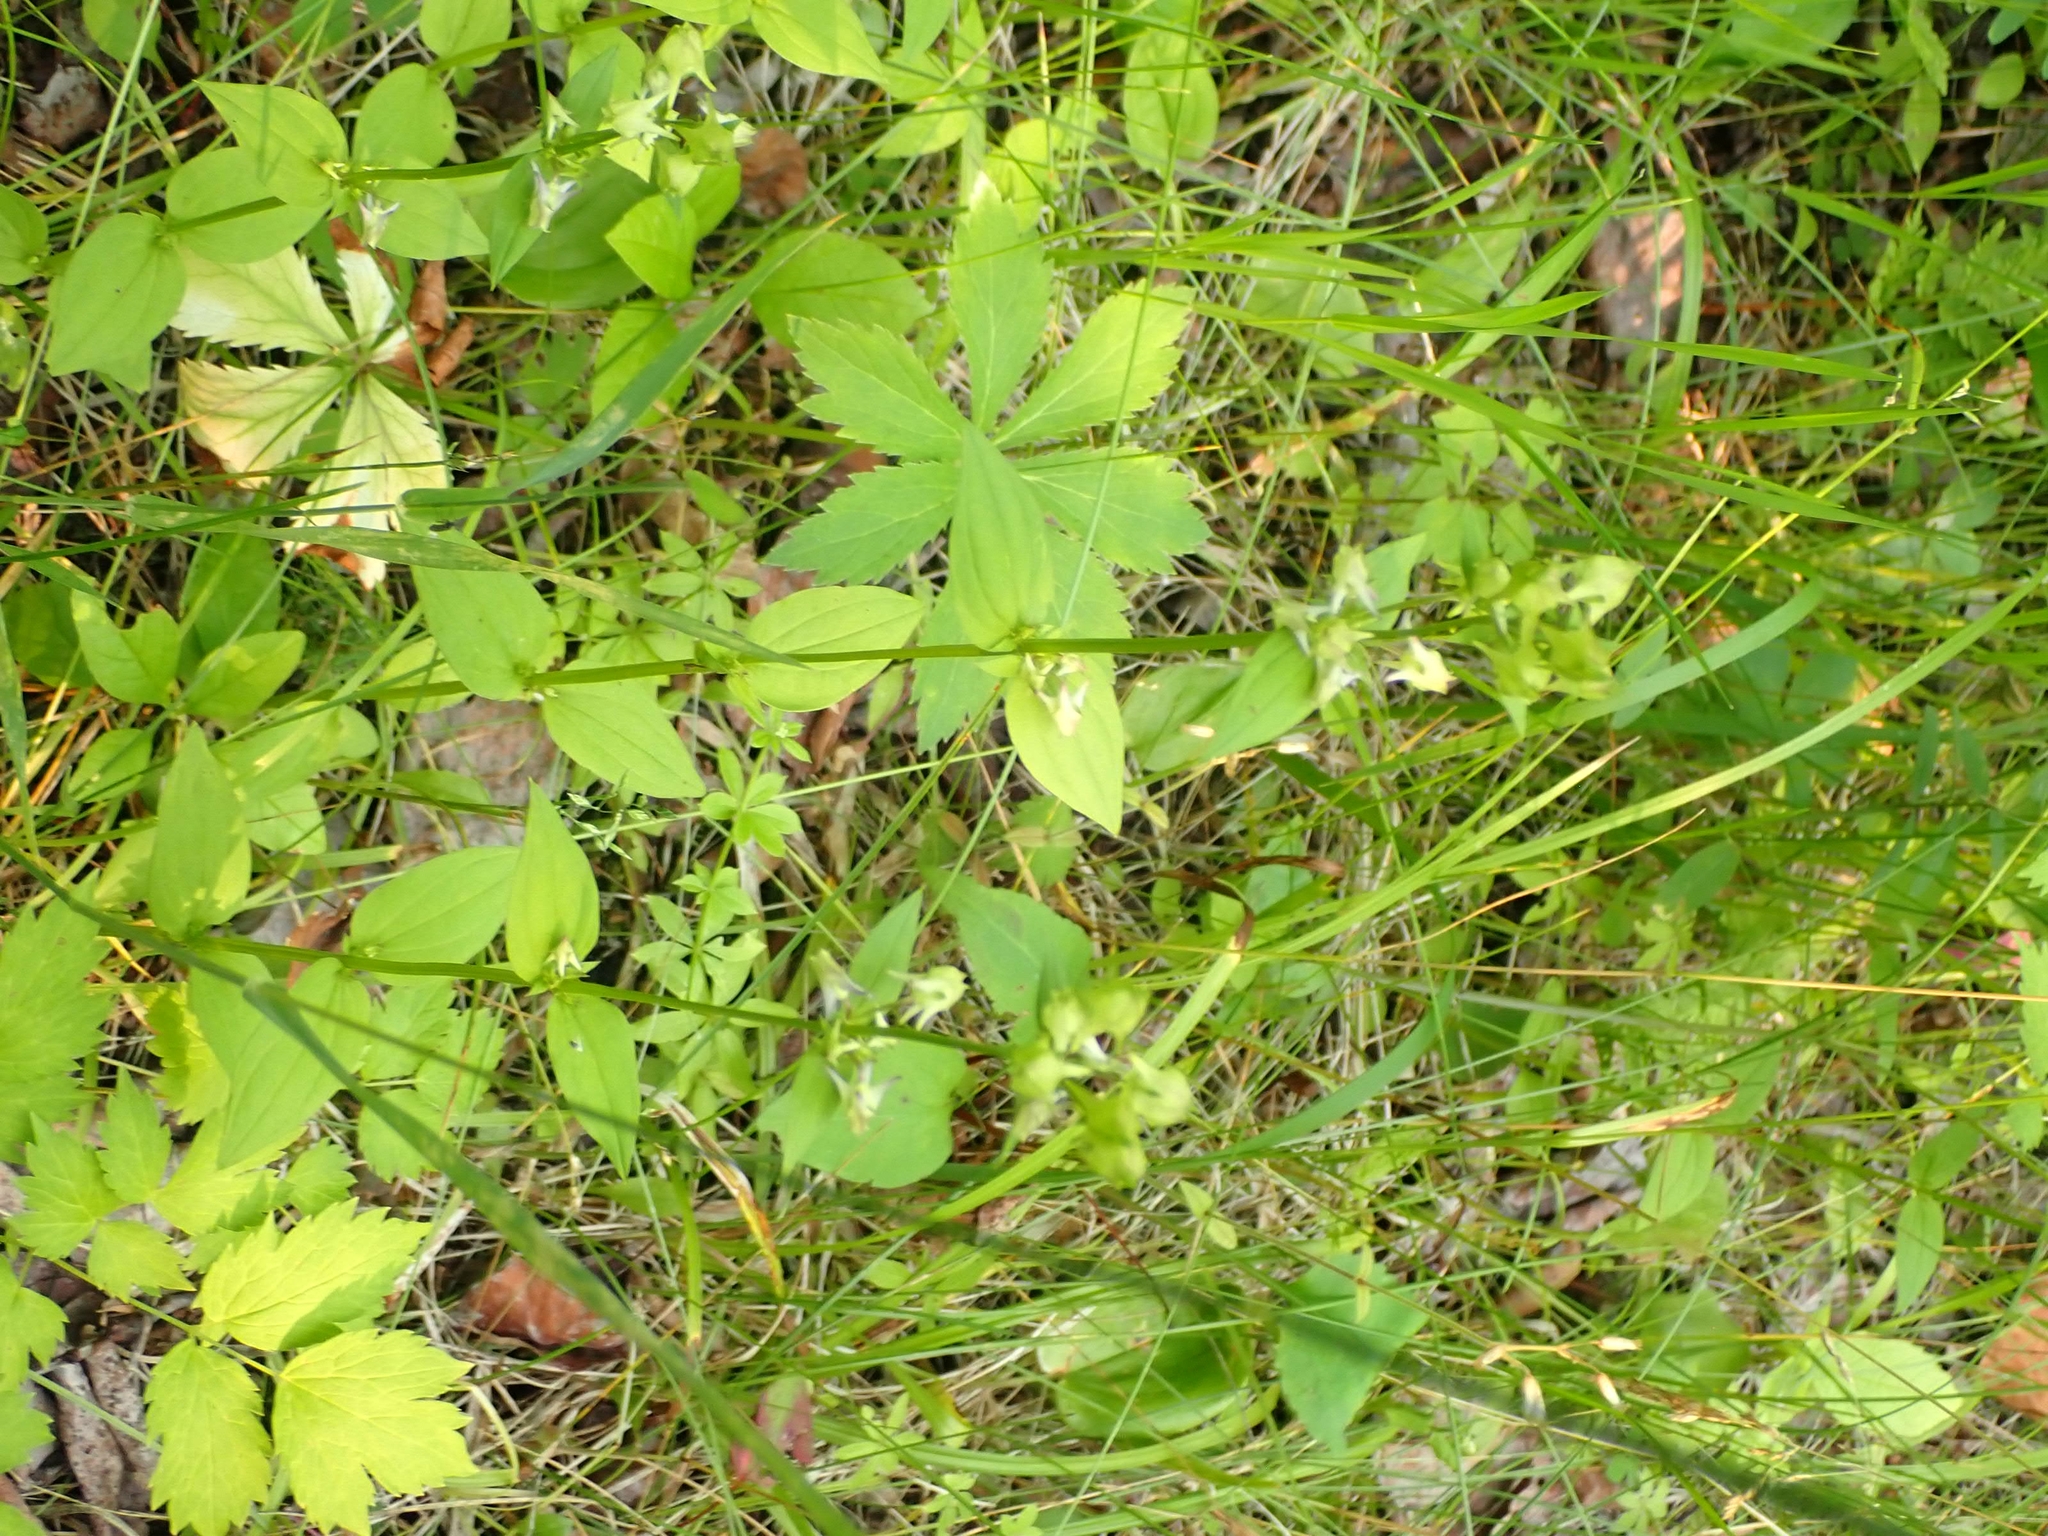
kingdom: Plantae
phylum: Tracheophyta
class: Magnoliopsida
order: Gentianales
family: Gentianaceae
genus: Halenia
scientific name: Halenia deflexa
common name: American spurred gentian
